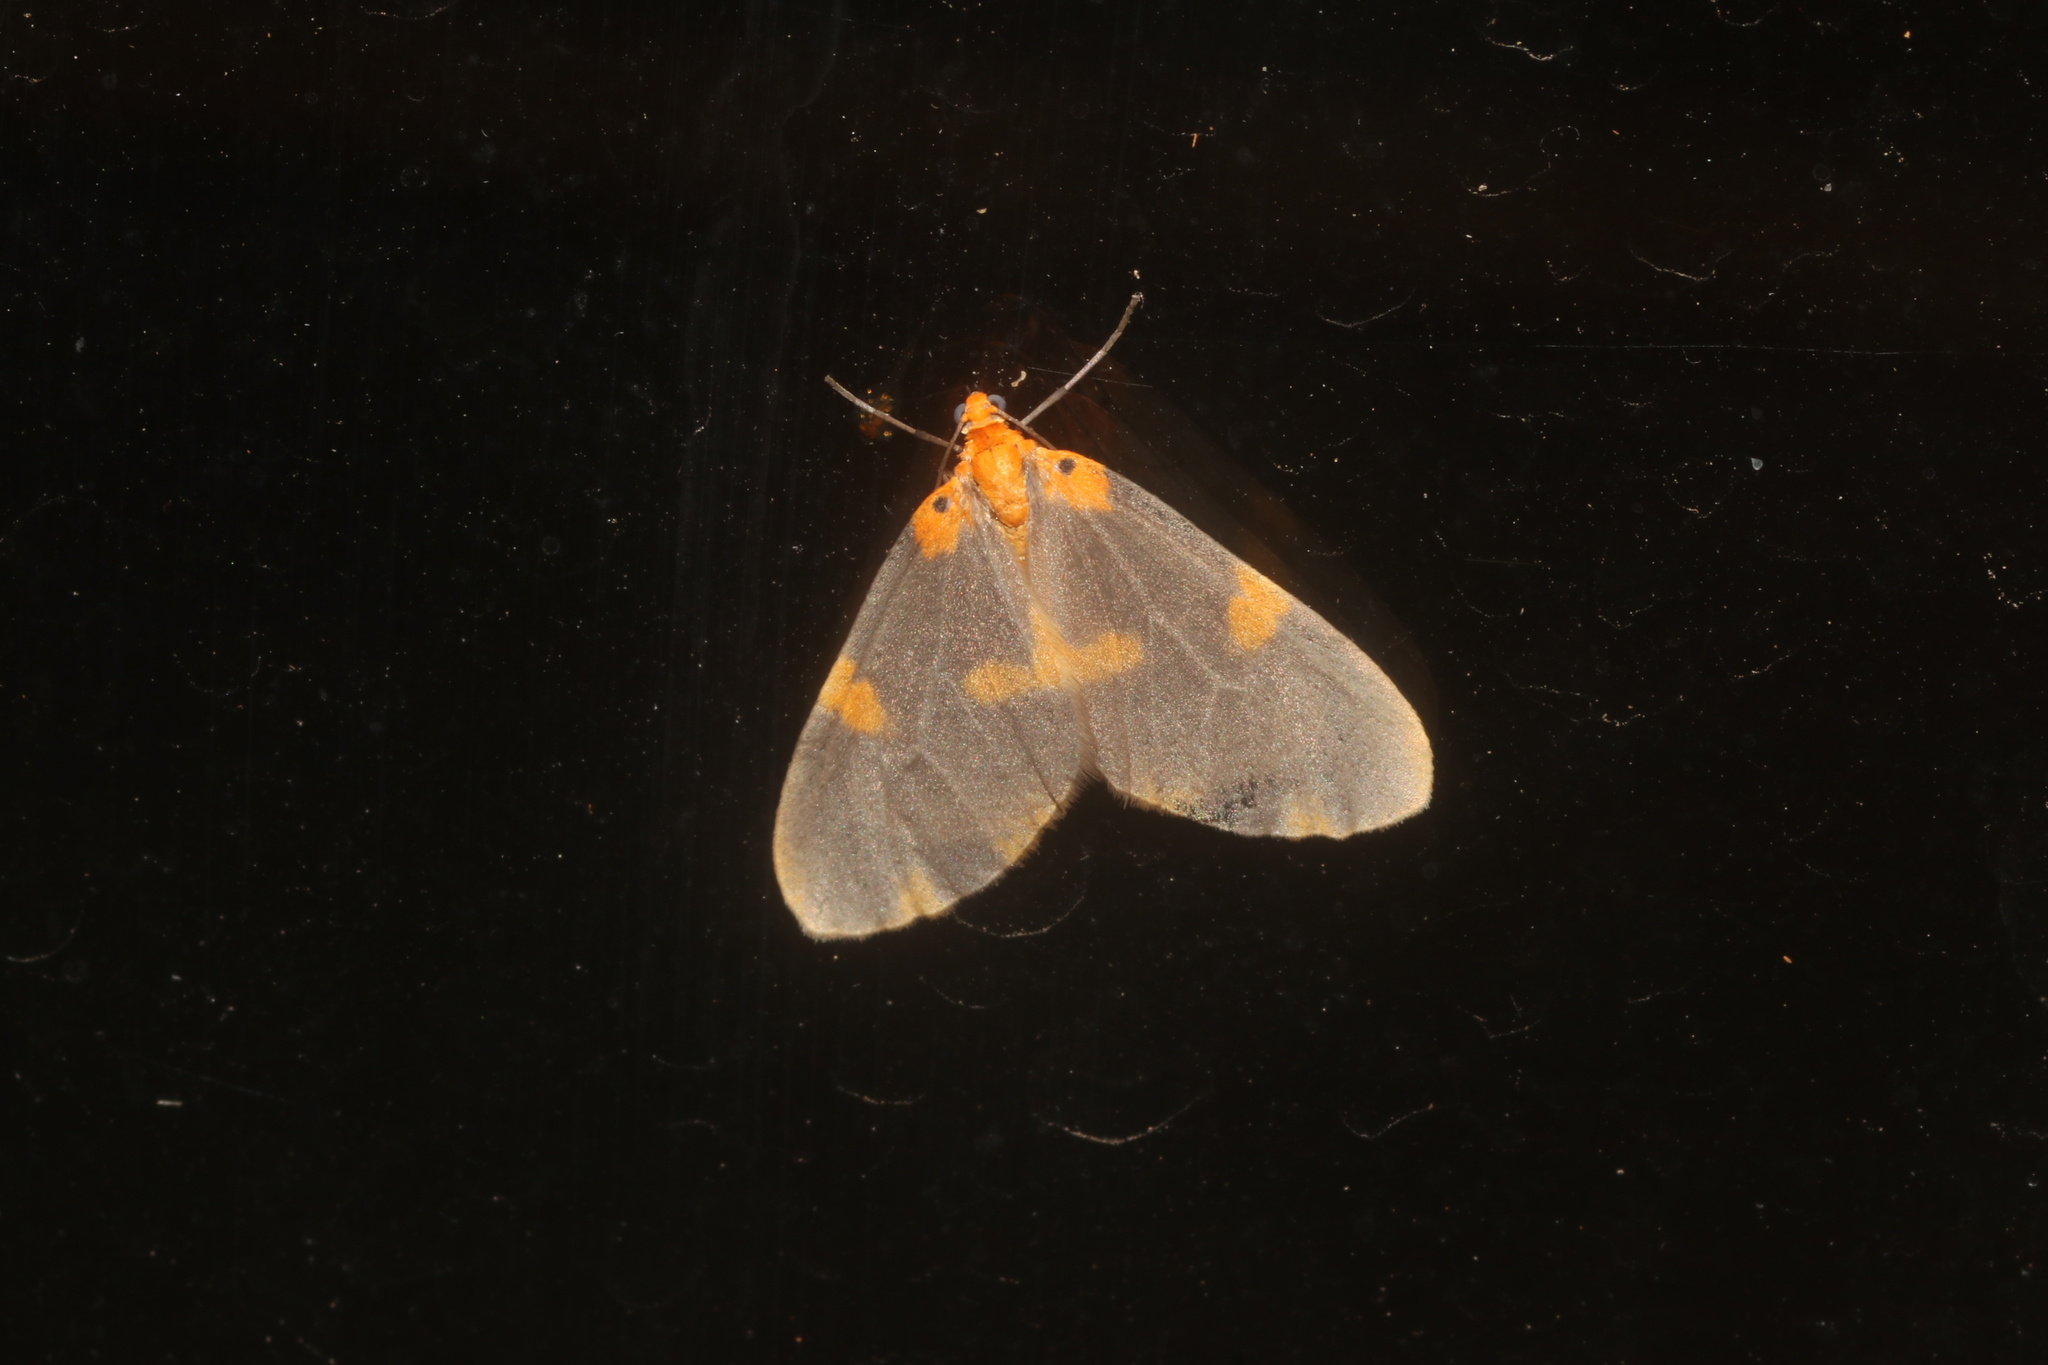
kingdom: Animalia
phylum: Arthropoda
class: Insecta
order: Lepidoptera
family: Geometridae
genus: Eubaphe
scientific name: Eubaphe pauper
